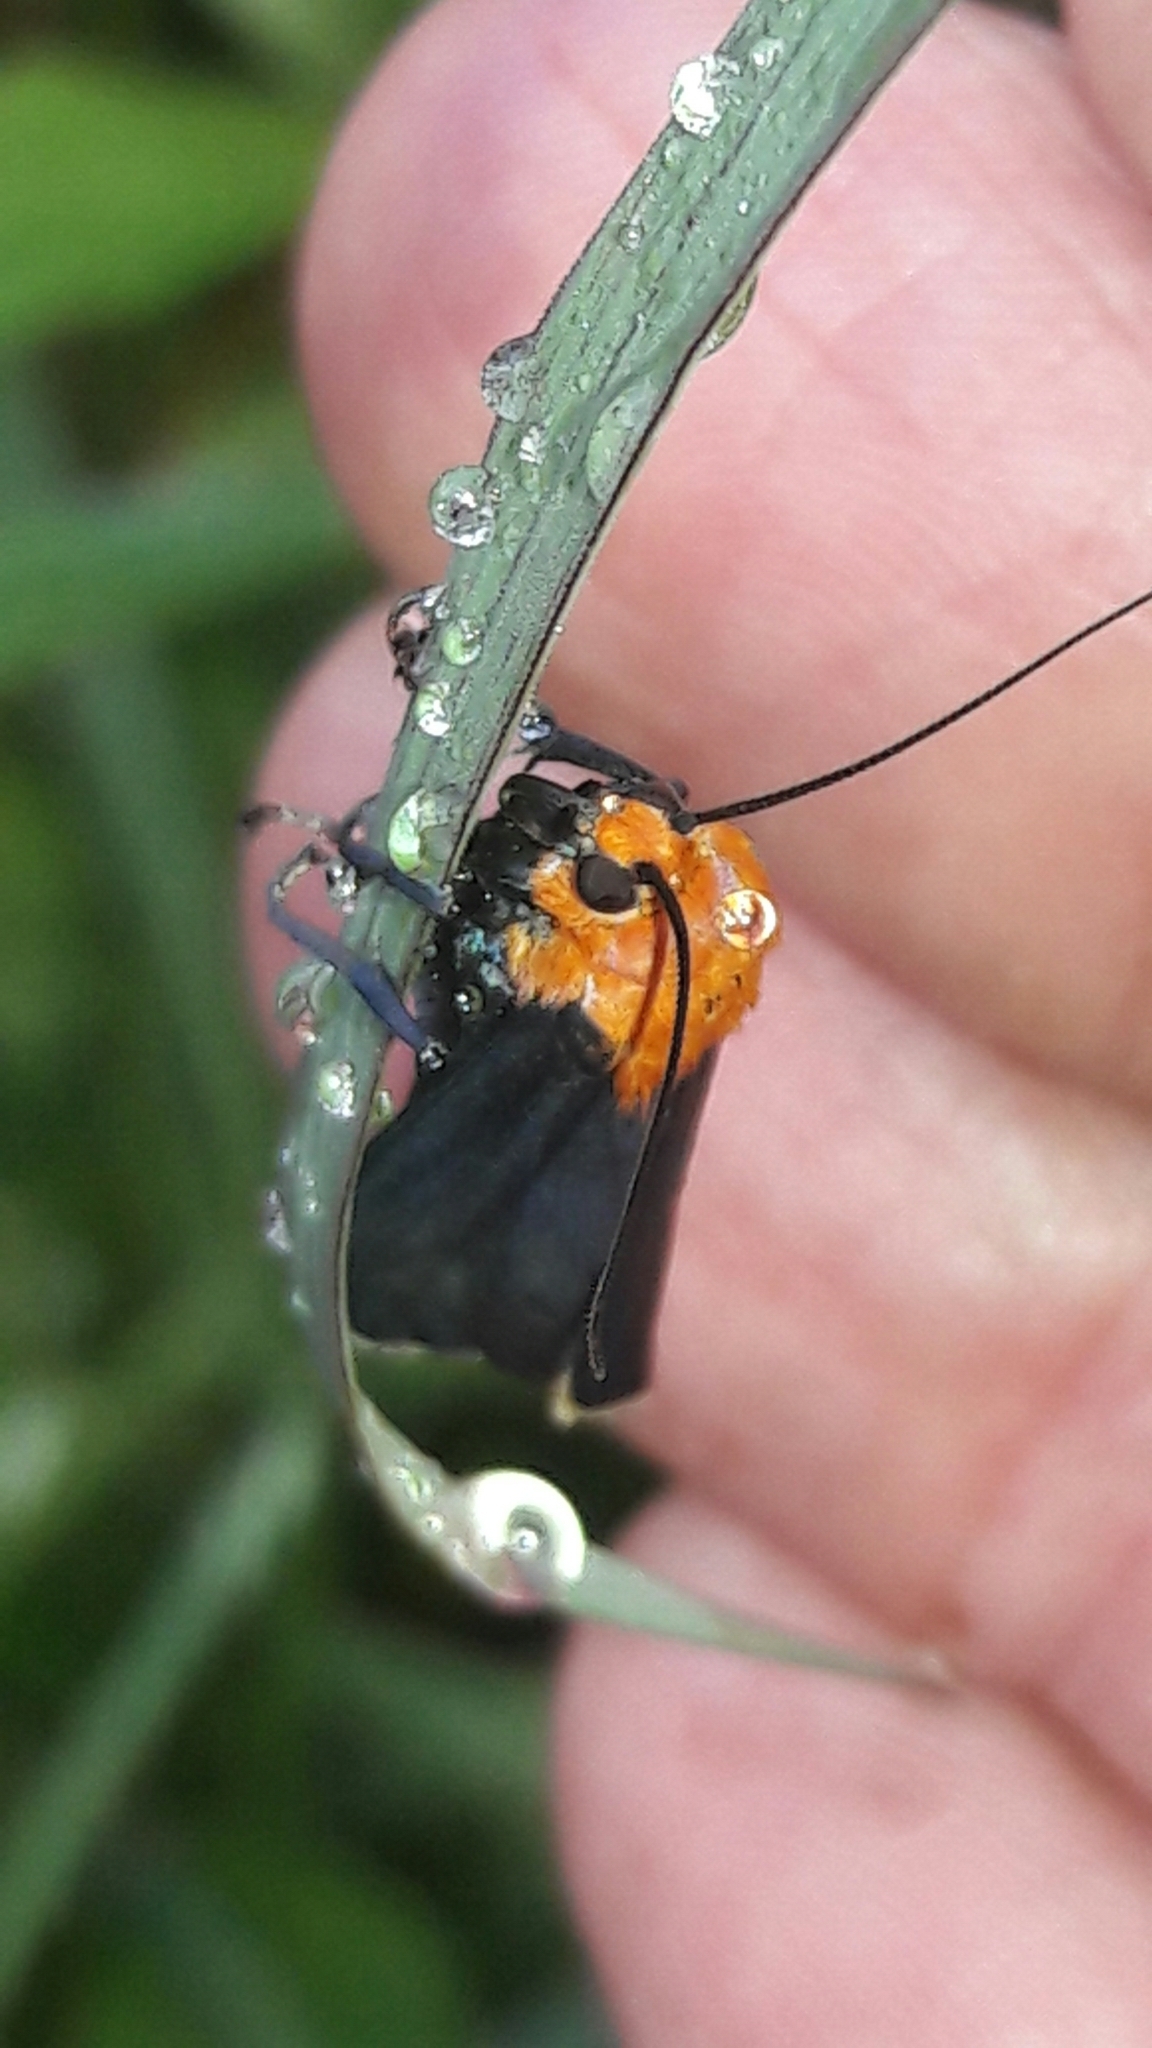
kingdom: Animalia
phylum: Arthropoda
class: Insecta
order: Lepidoptera
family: Erebidae
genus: Apistosia
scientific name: Apistosia judas
